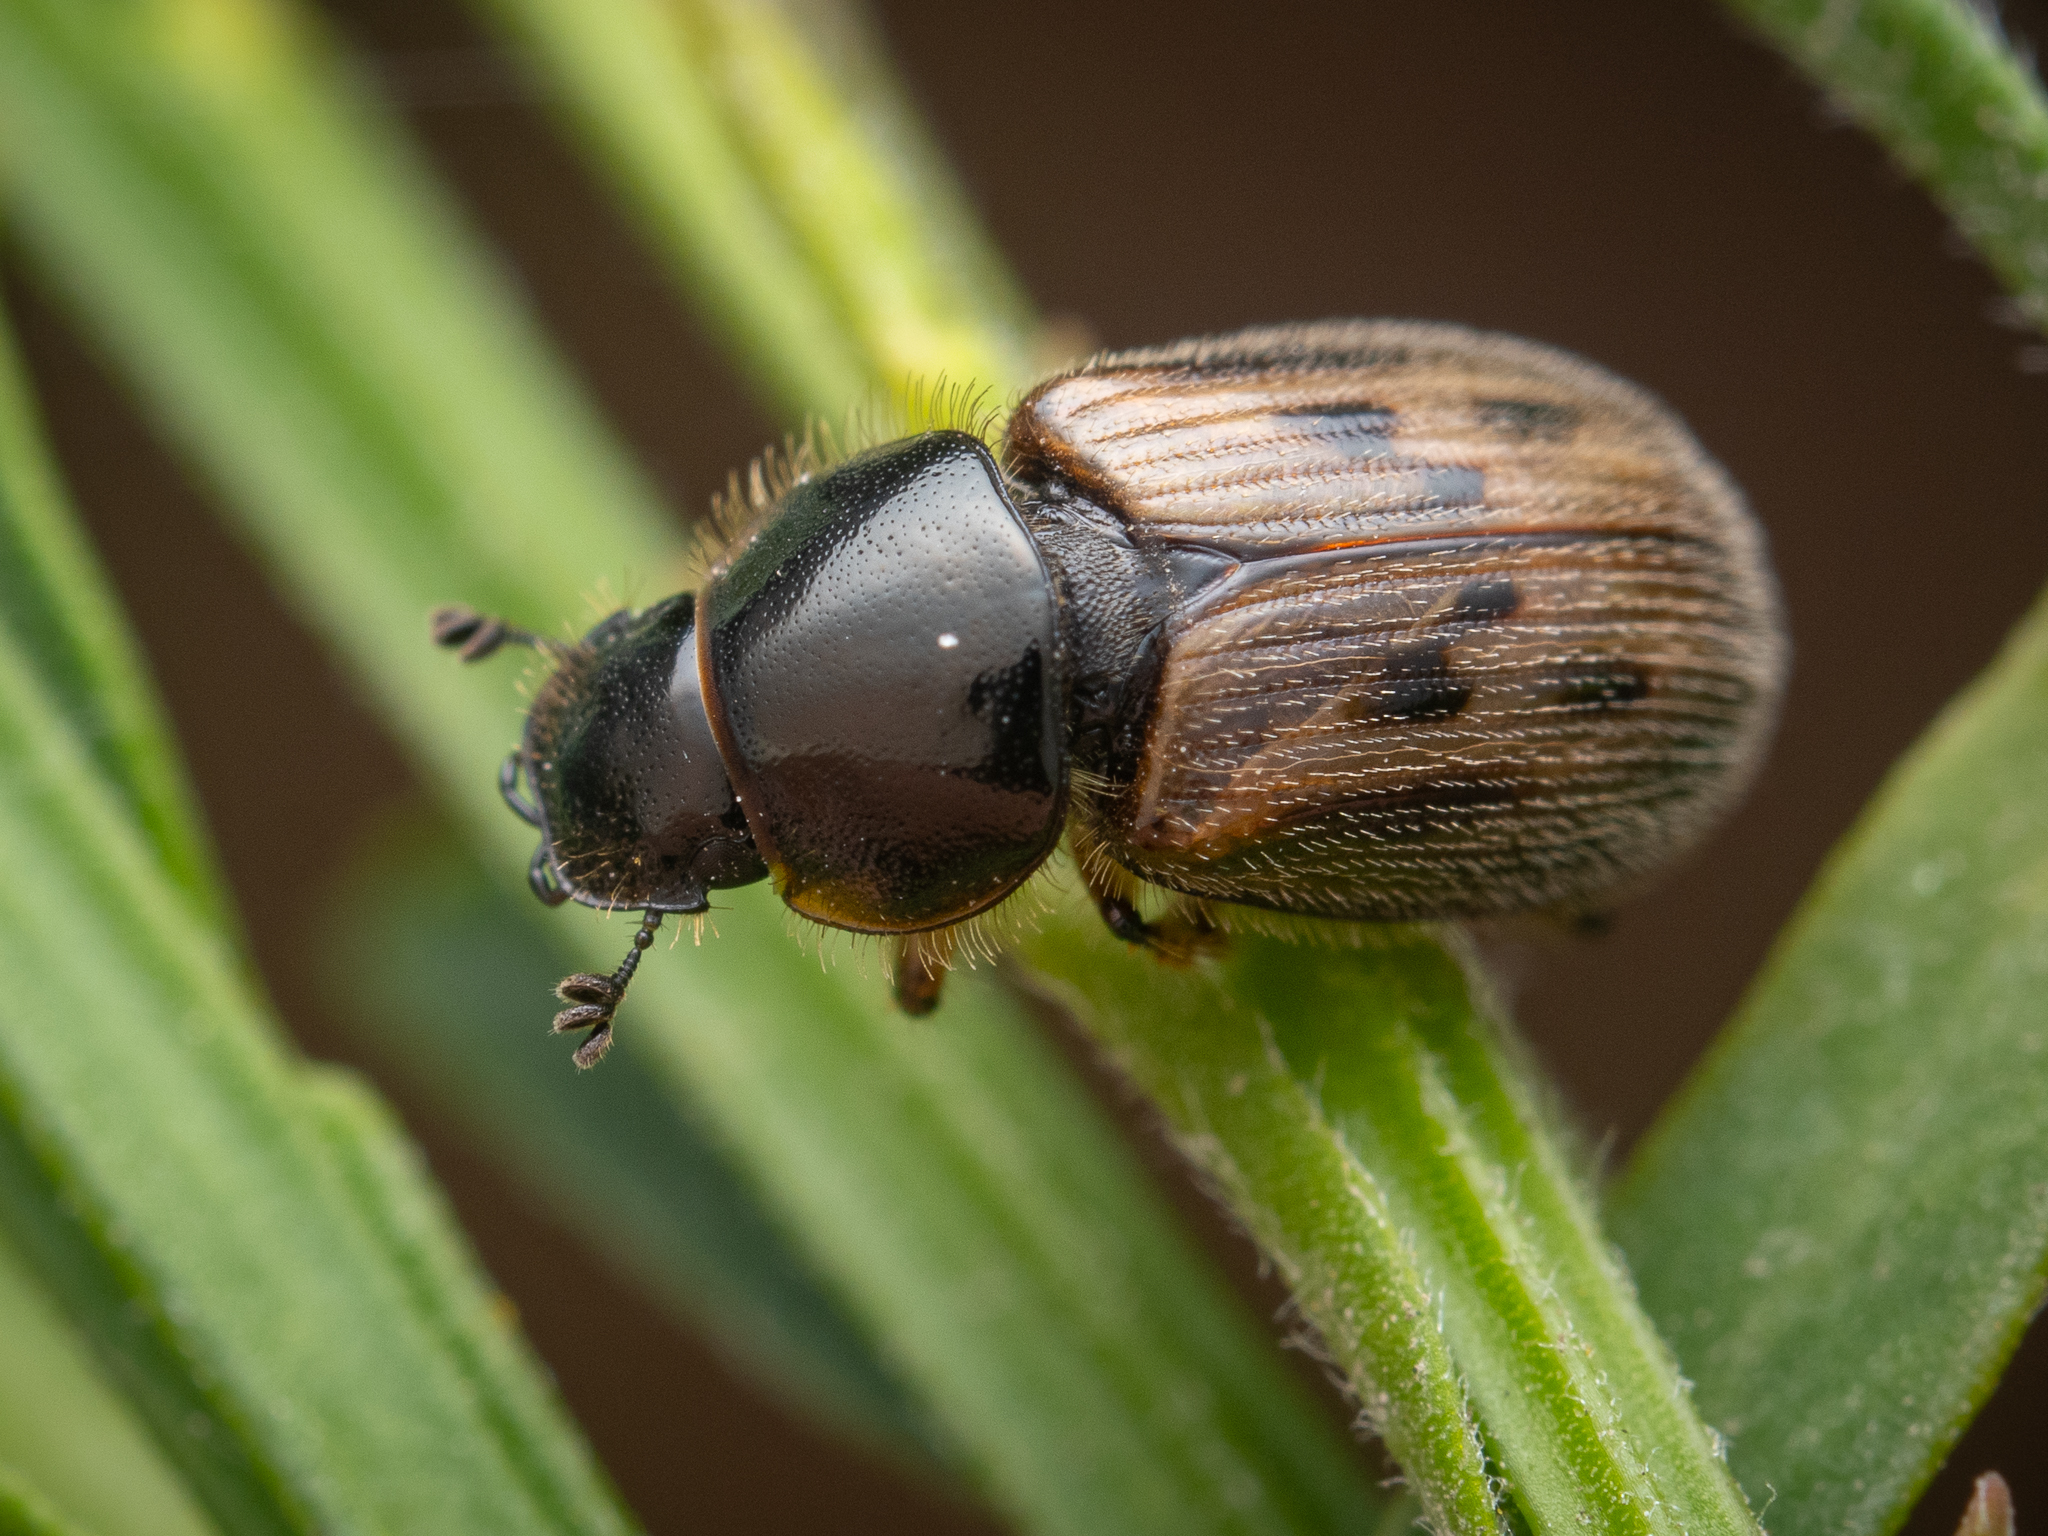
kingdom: Animalia
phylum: Arthropoda
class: Insecta
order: Coleoptera
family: Scarabaeidae
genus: Nimbus
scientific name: Nimbus contaminatus
